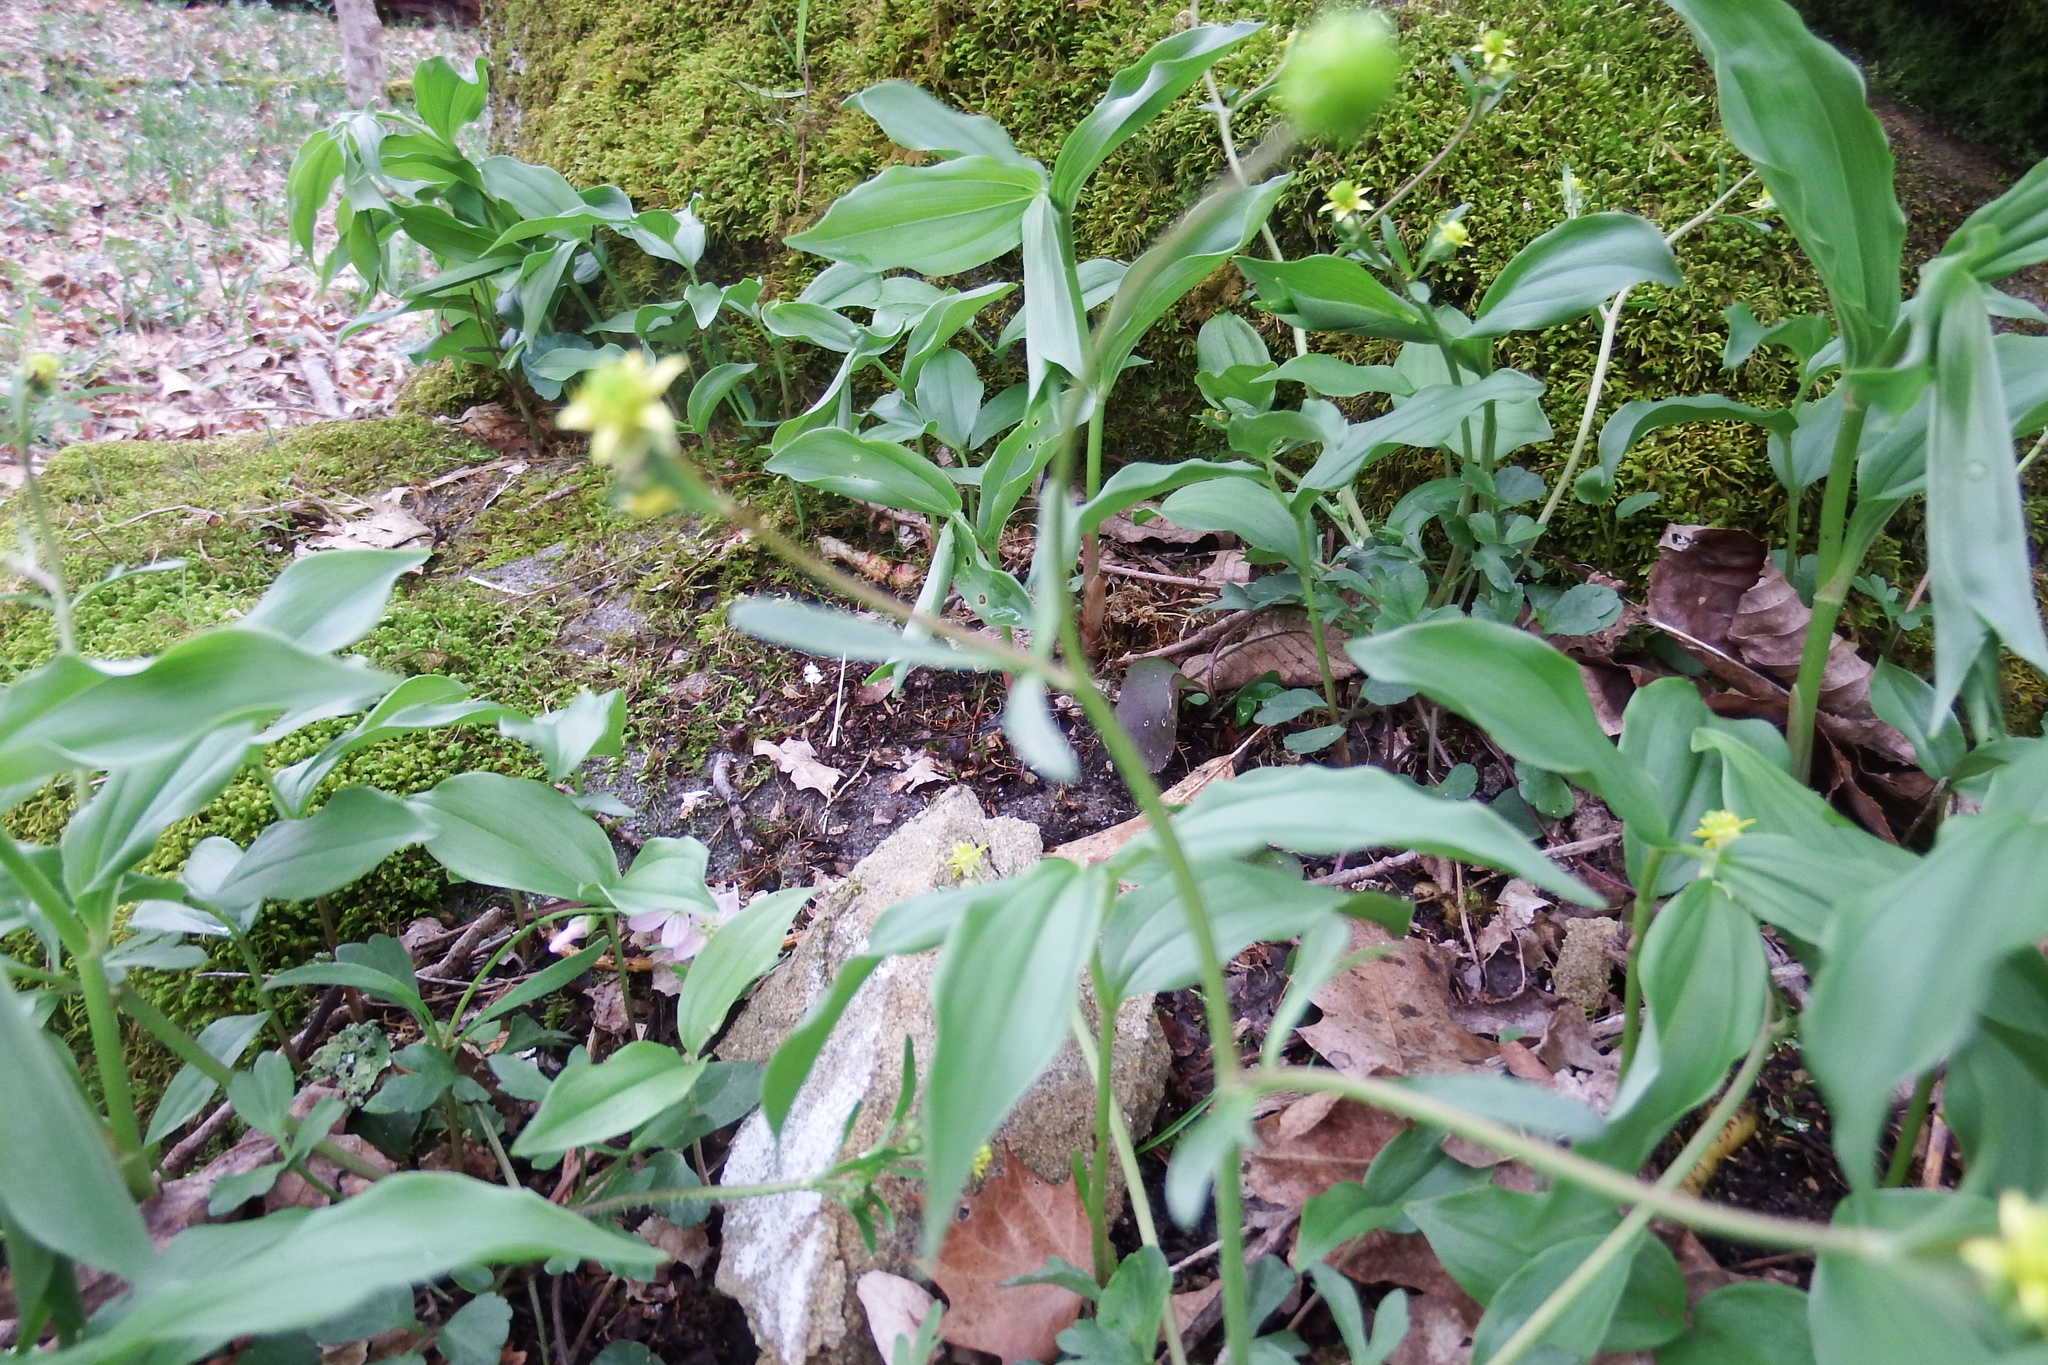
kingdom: Plantae
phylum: Tracheophyta
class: Liliopsida
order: Asparagales
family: Asparagaceae
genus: Maianthemum
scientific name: Maianthemum racemosum
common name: False spikenard
